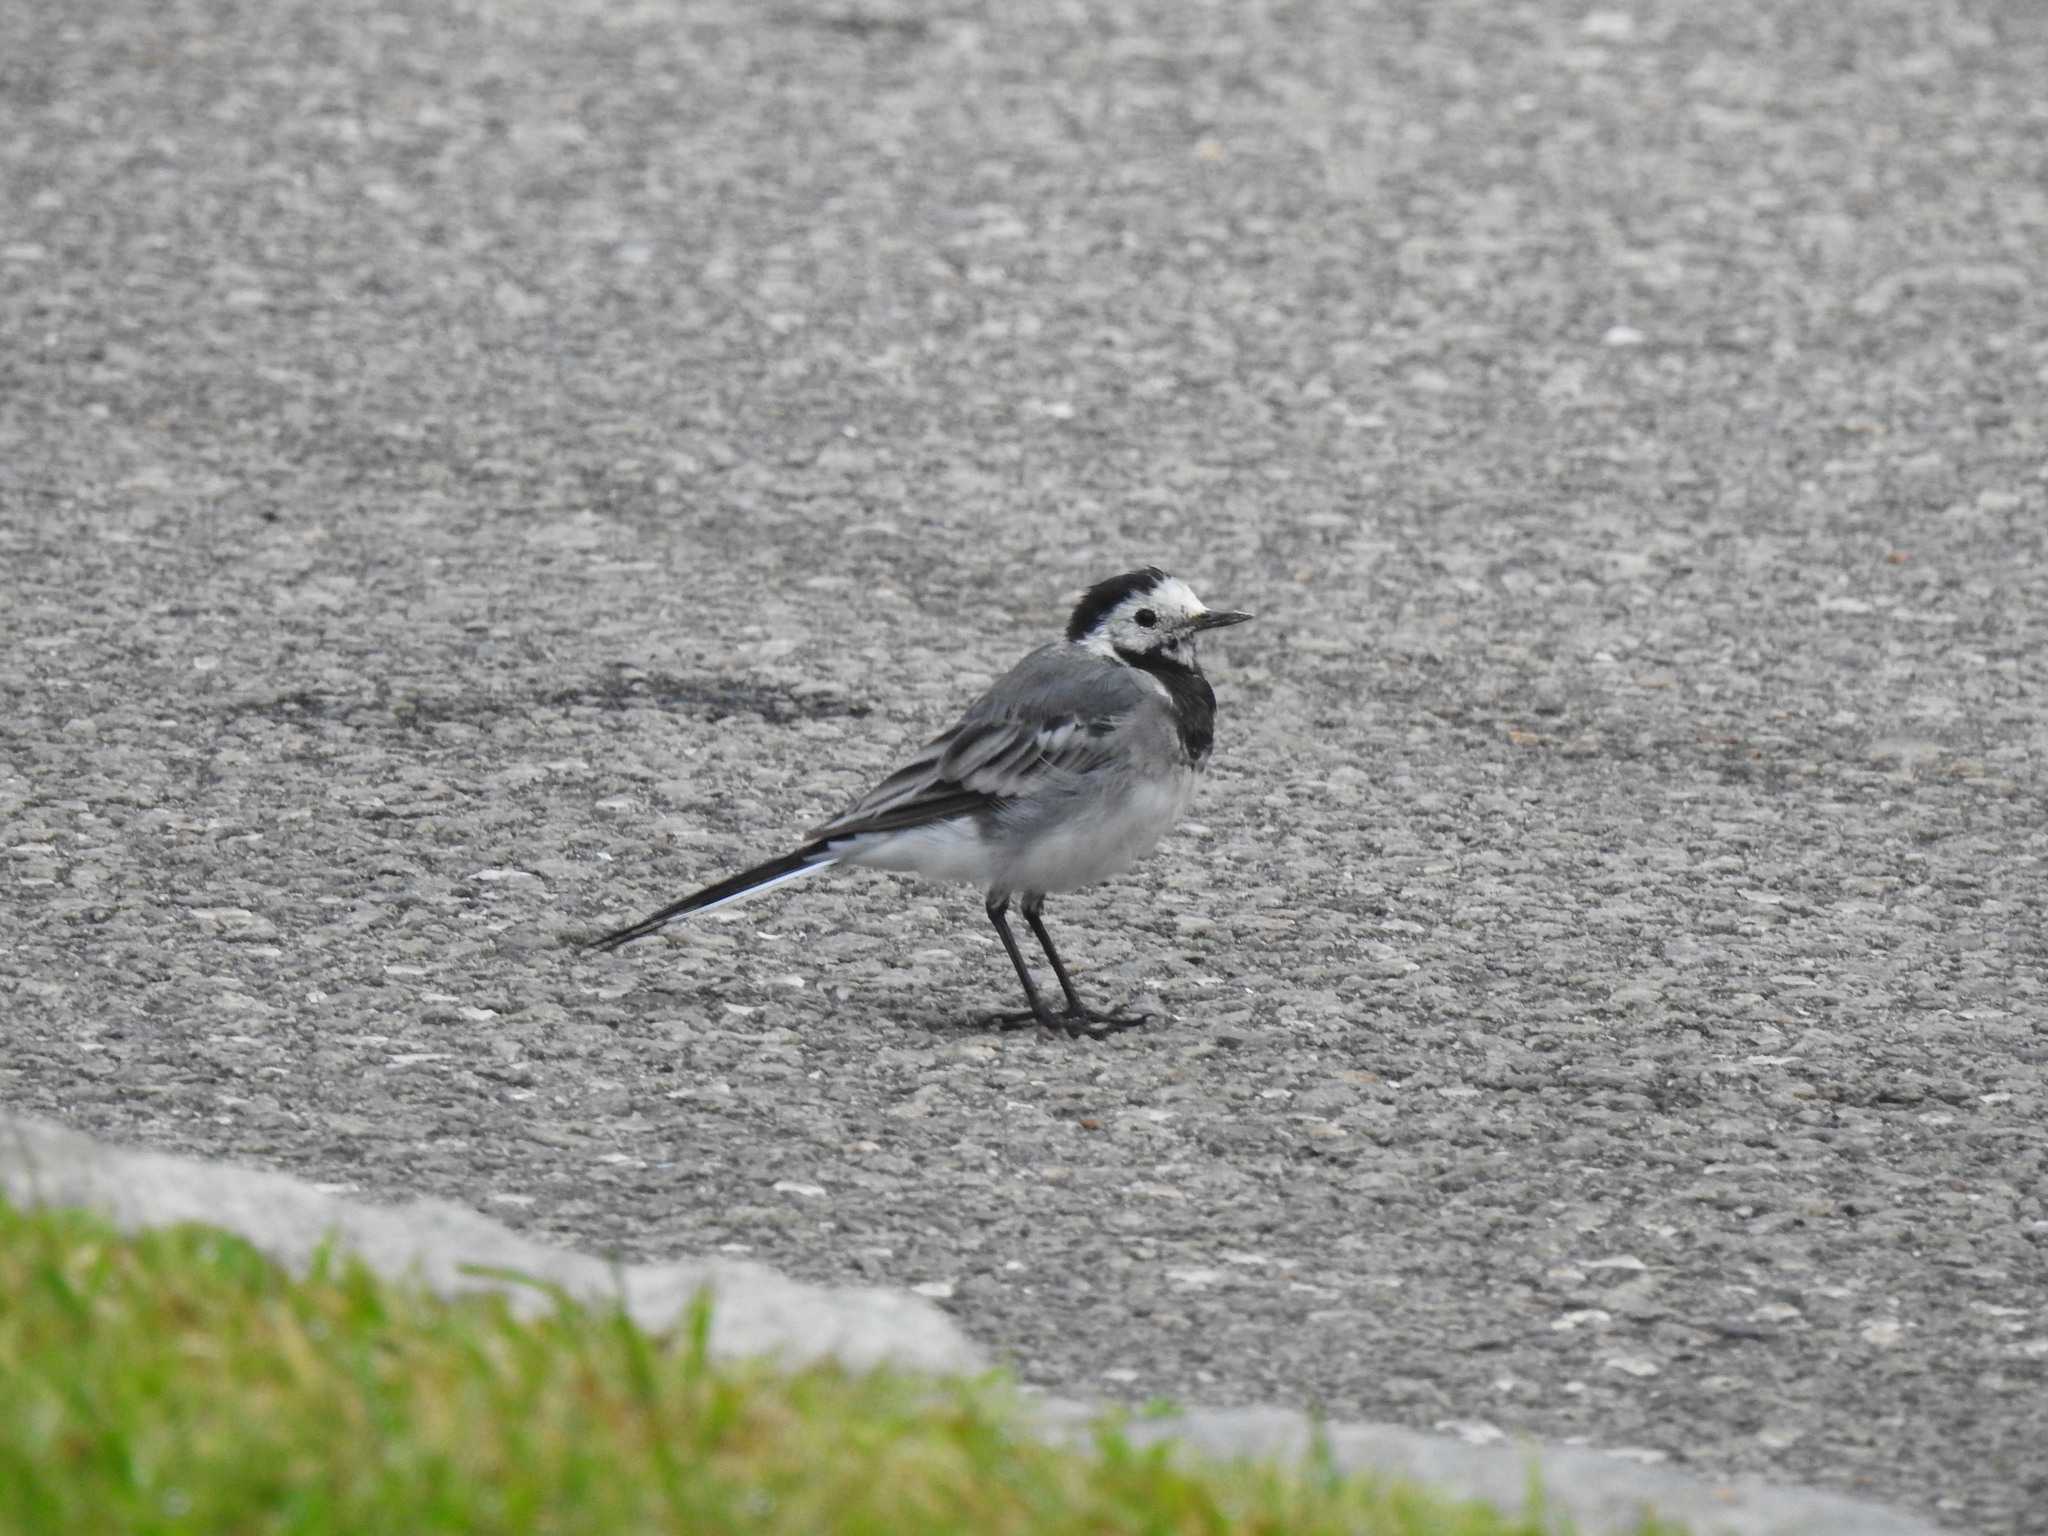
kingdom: Animalia
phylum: Chordata
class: Aves
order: Passeriformes
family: Motacillidae
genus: Motacilla
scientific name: Motacilla alba
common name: White wagtail
